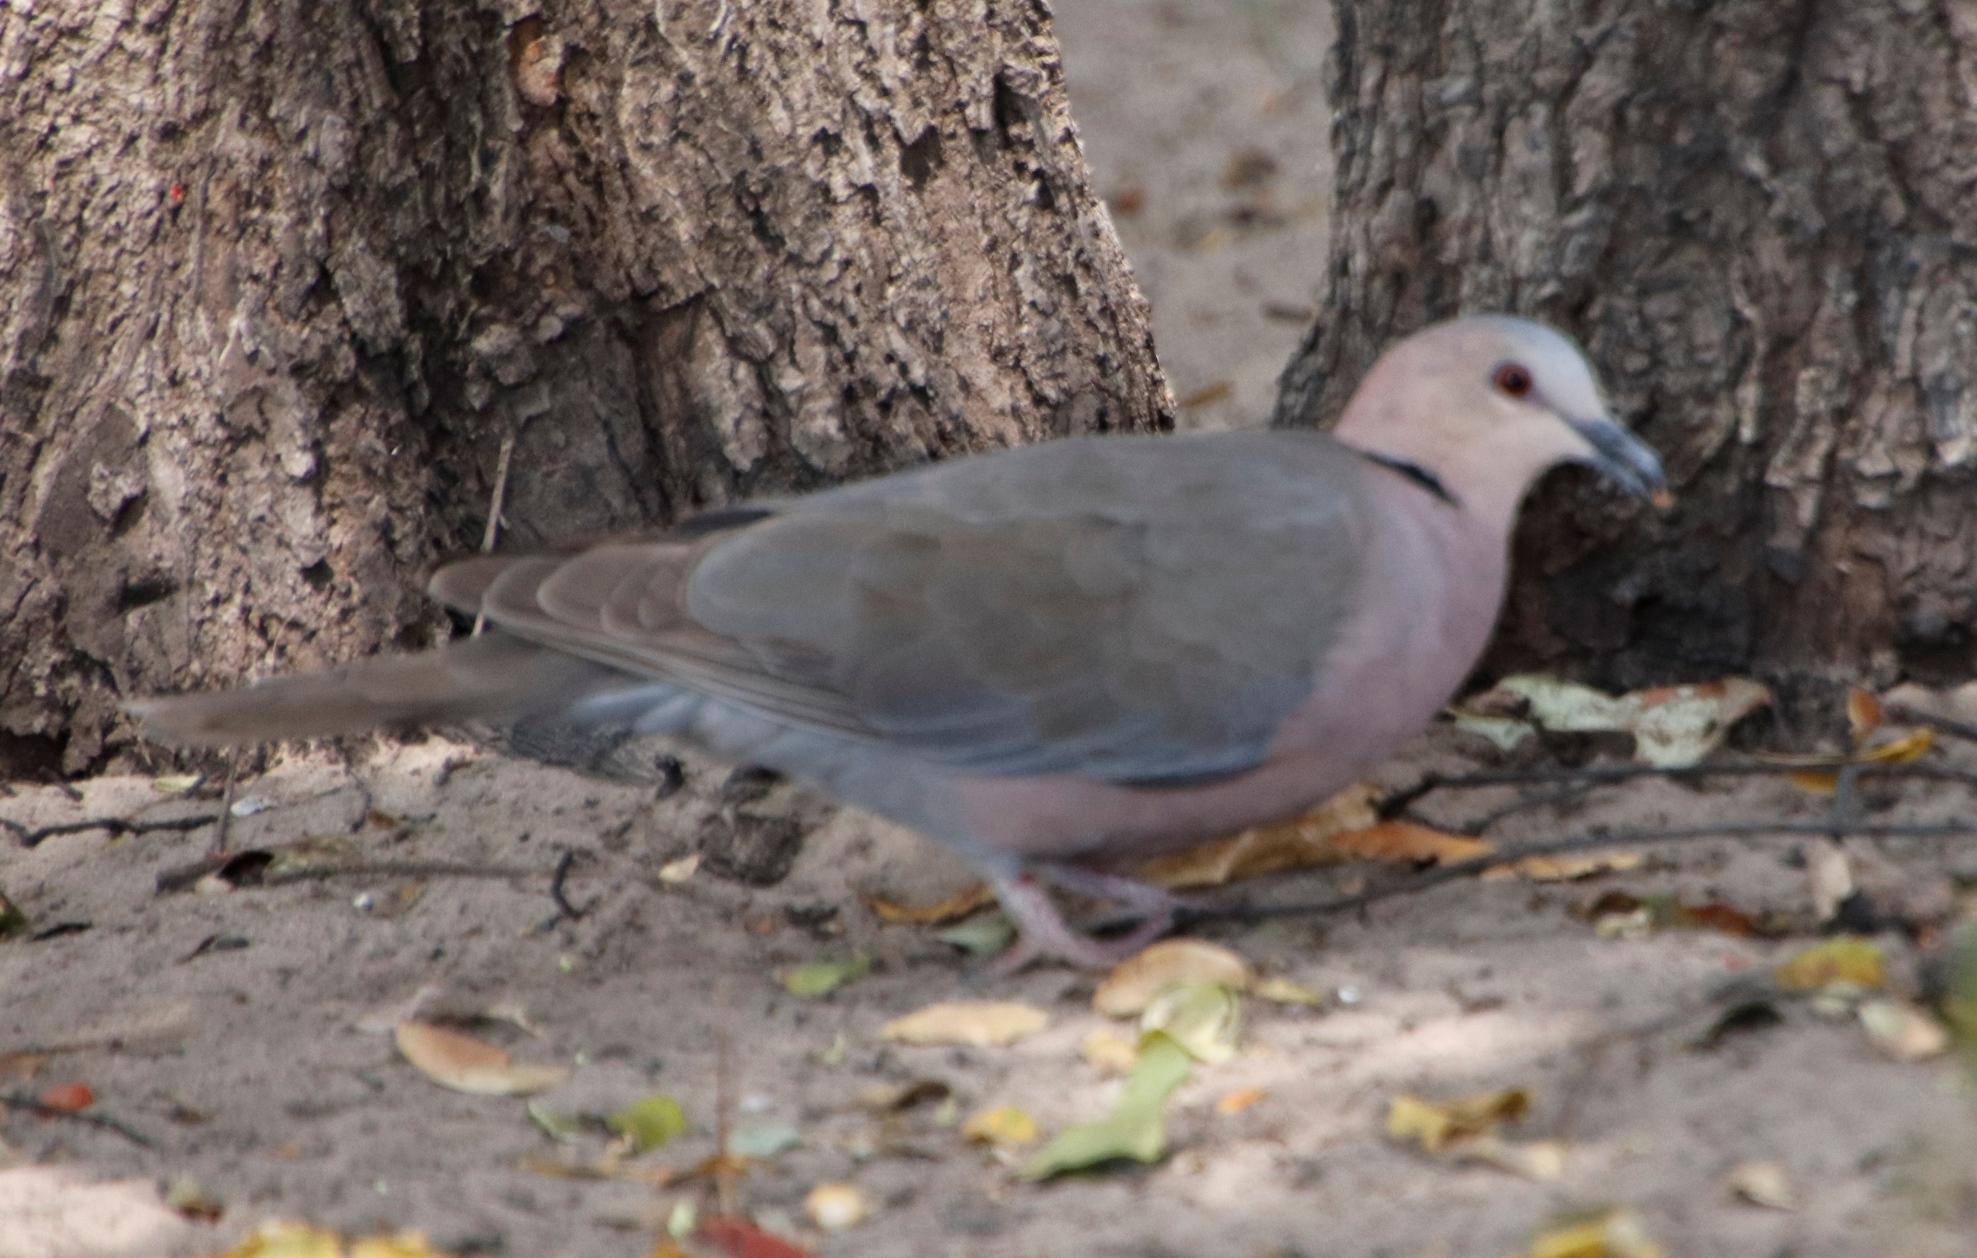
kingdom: Animalia
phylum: Chordata
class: Aves
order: Columbiformes
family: Columbidae
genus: Streptopelia
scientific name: Streptopelia semitorquata
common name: Red-eyed dove
